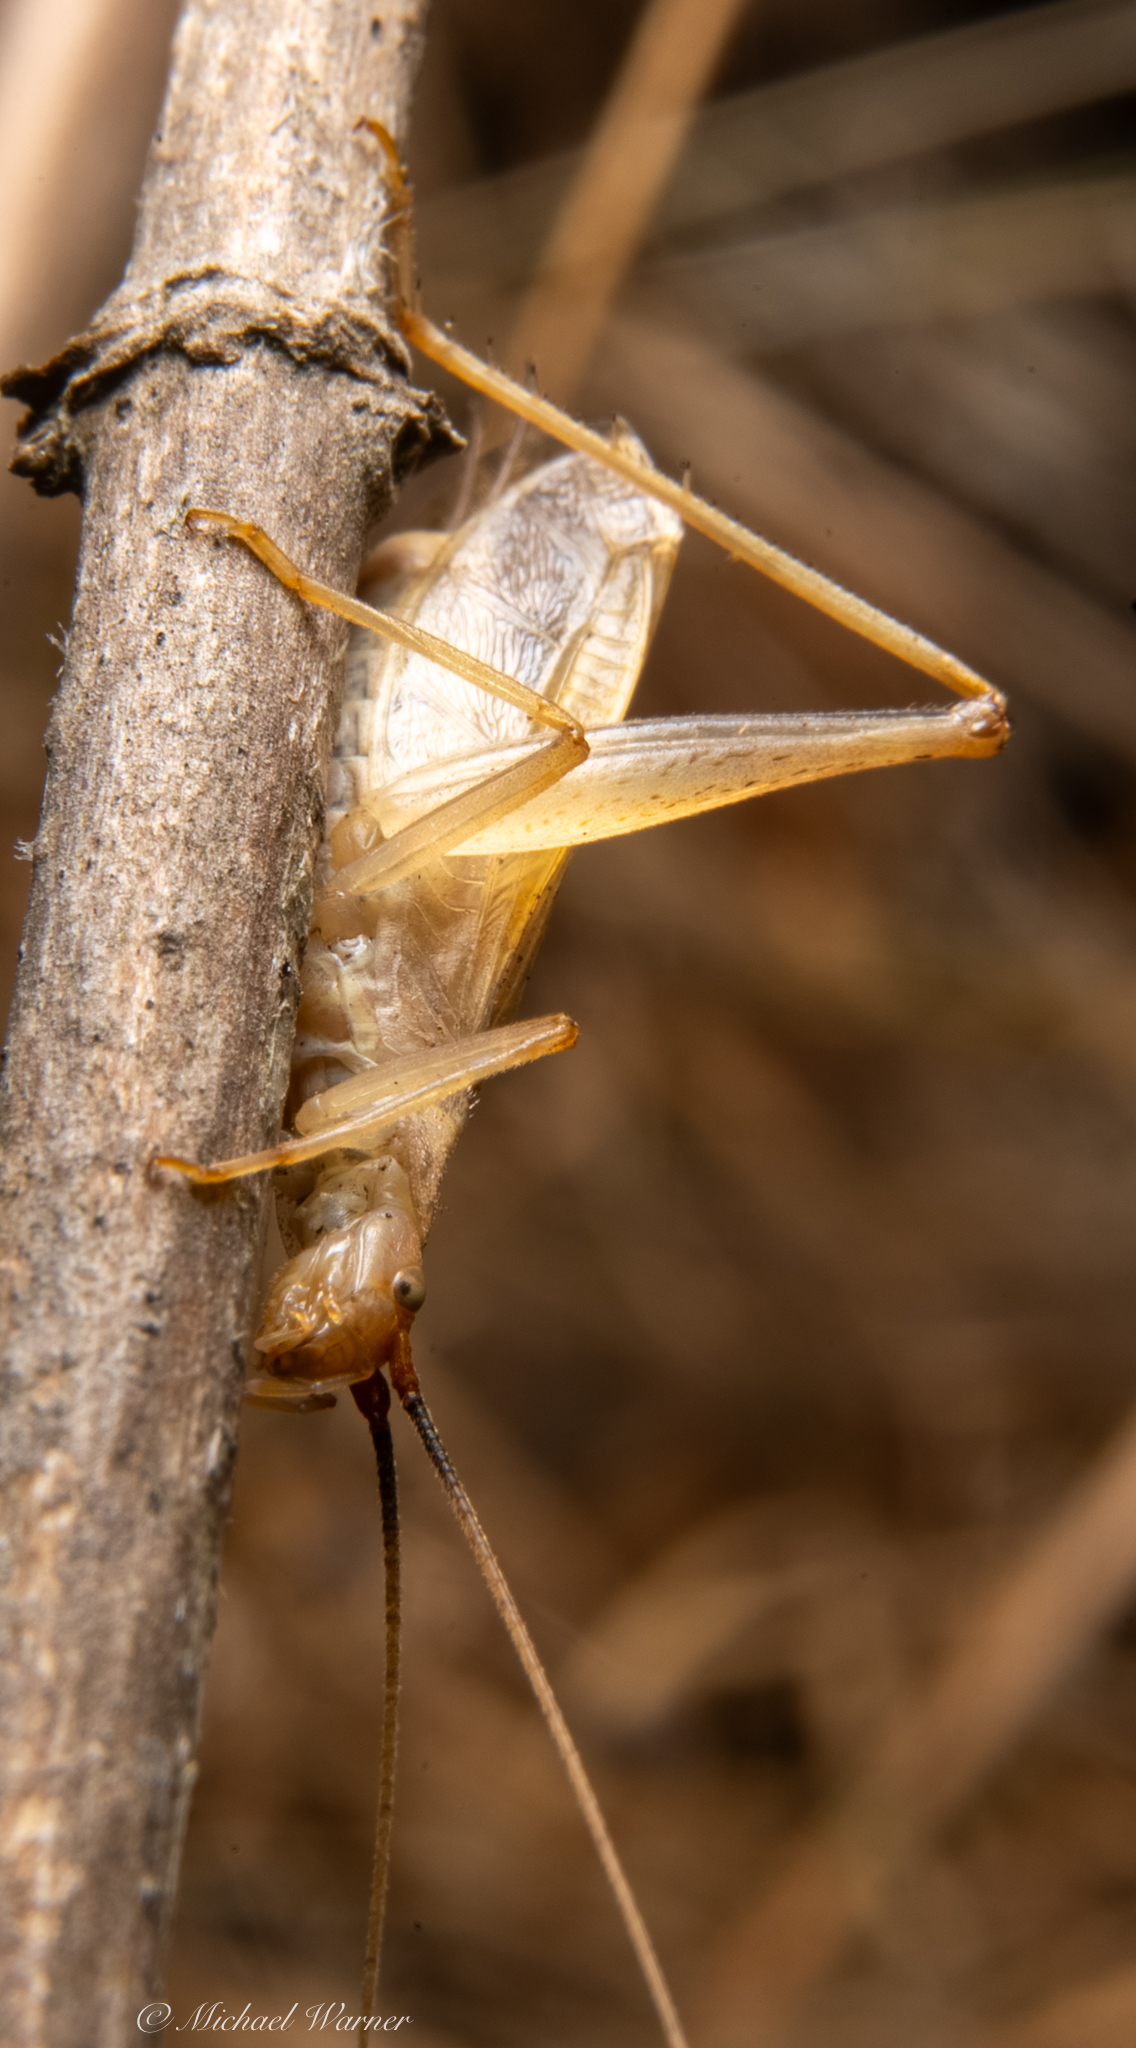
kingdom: Animalia
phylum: Arthropoda
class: Insecta
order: Orthoptera
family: Gryllidae
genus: Oecanthus
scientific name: Oecanthus californicus
